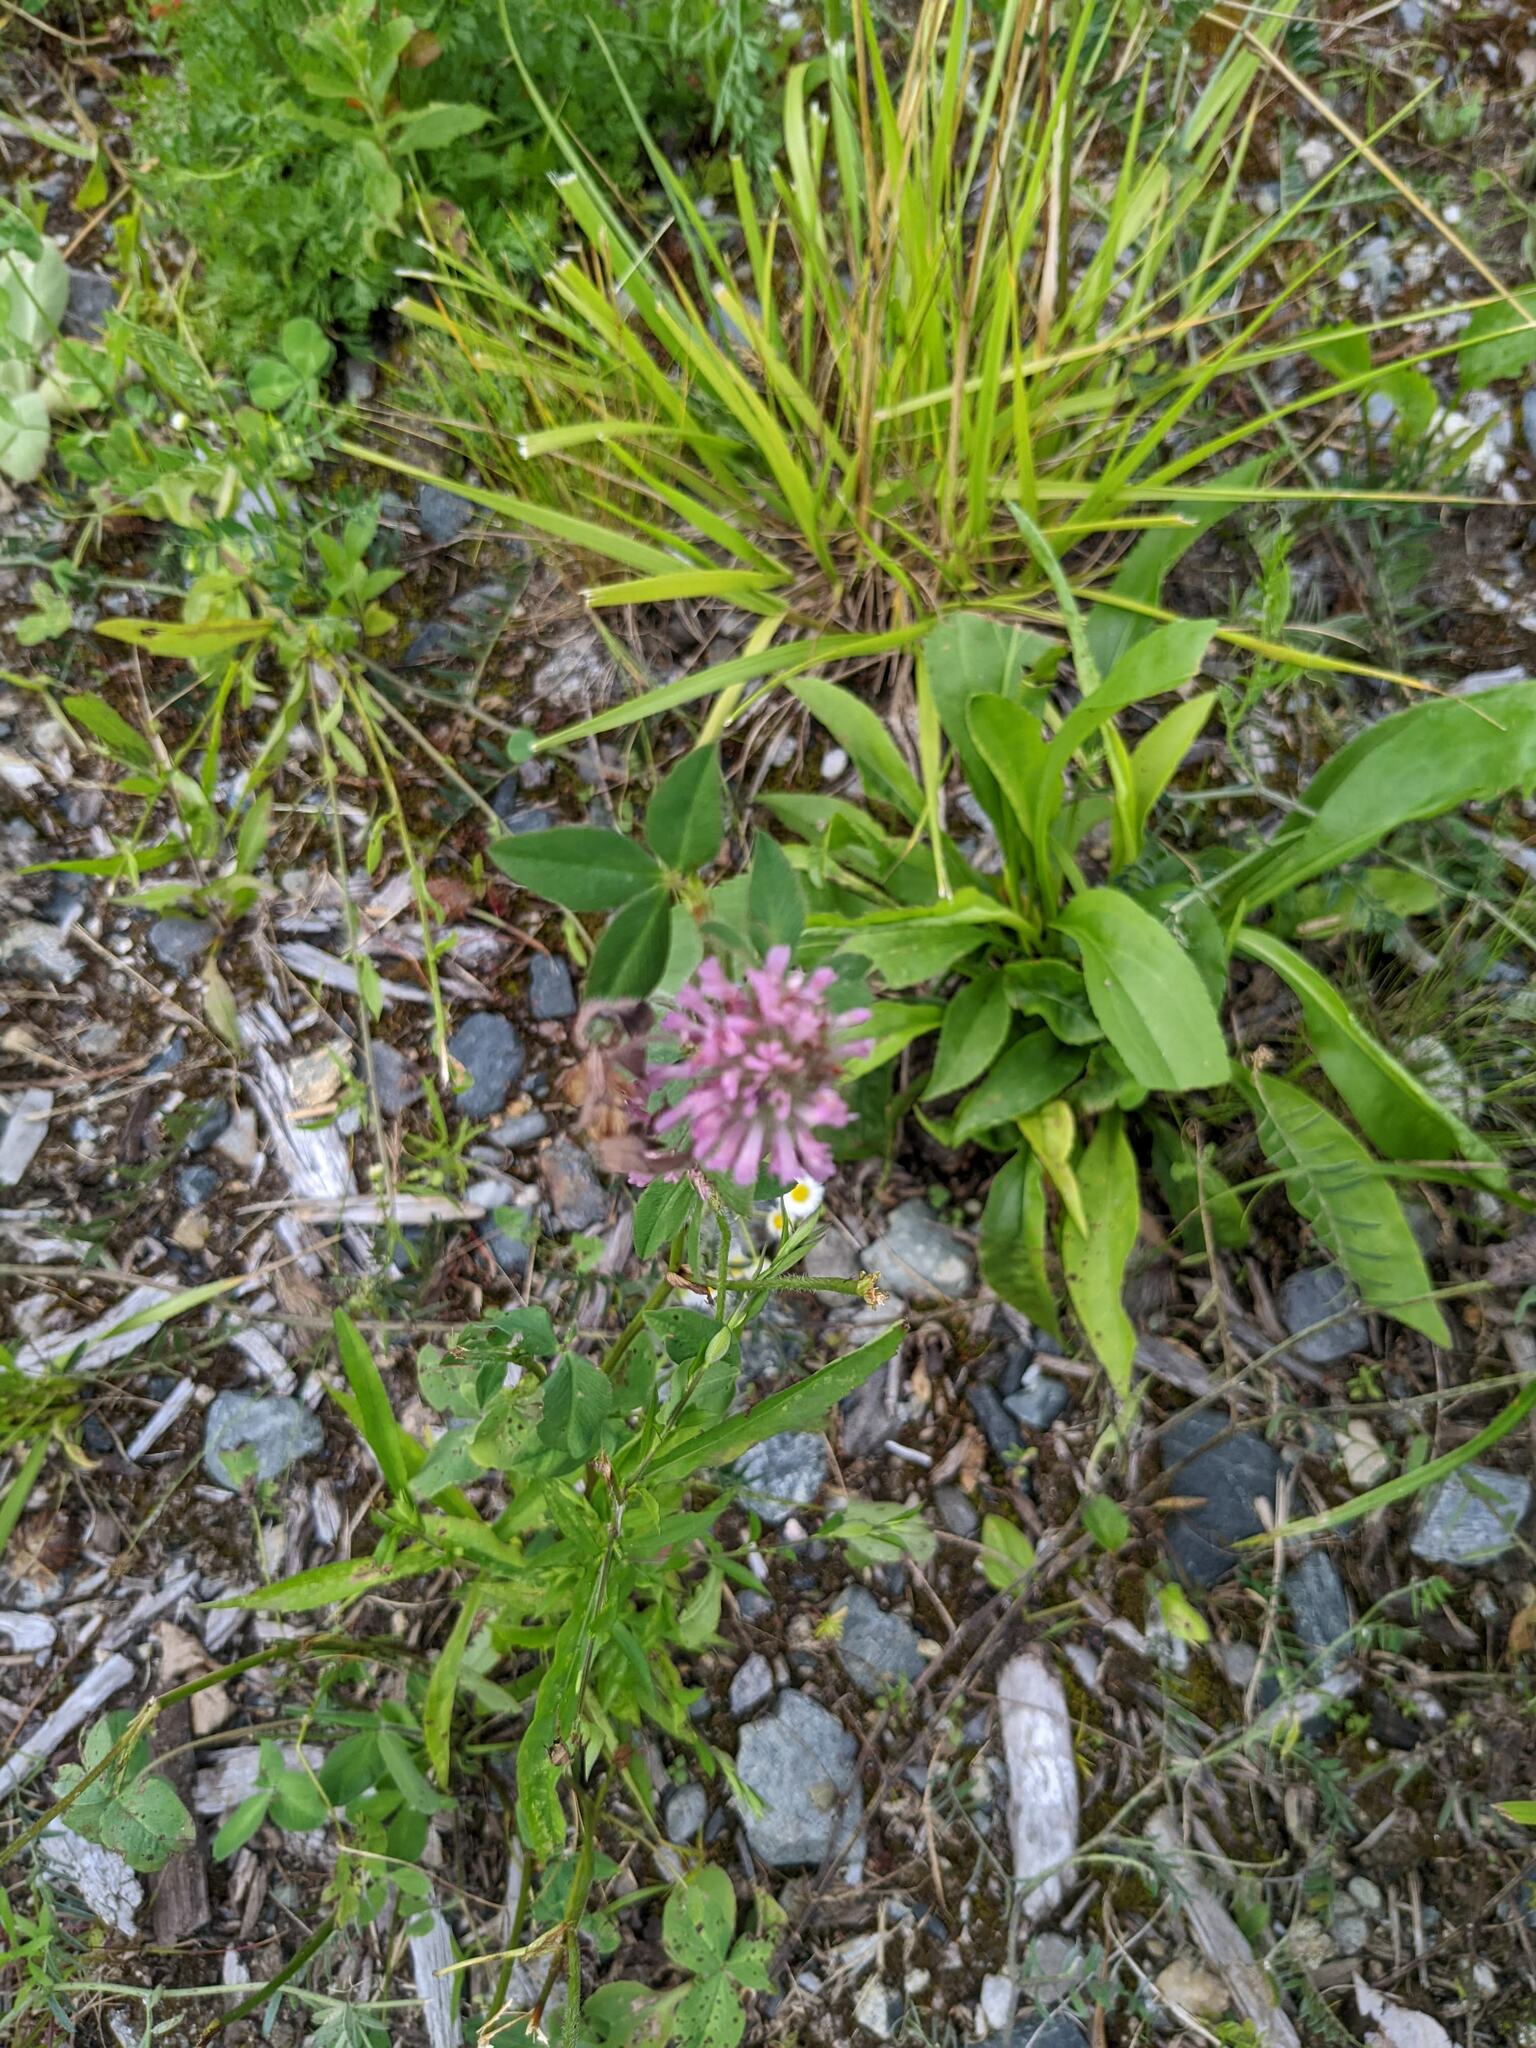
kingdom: Plantae
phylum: Tracheophyta
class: Magnoliopsida
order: Fabales
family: Fabaceae
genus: Trifolium
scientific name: Trifolium pratense
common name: Red clover
